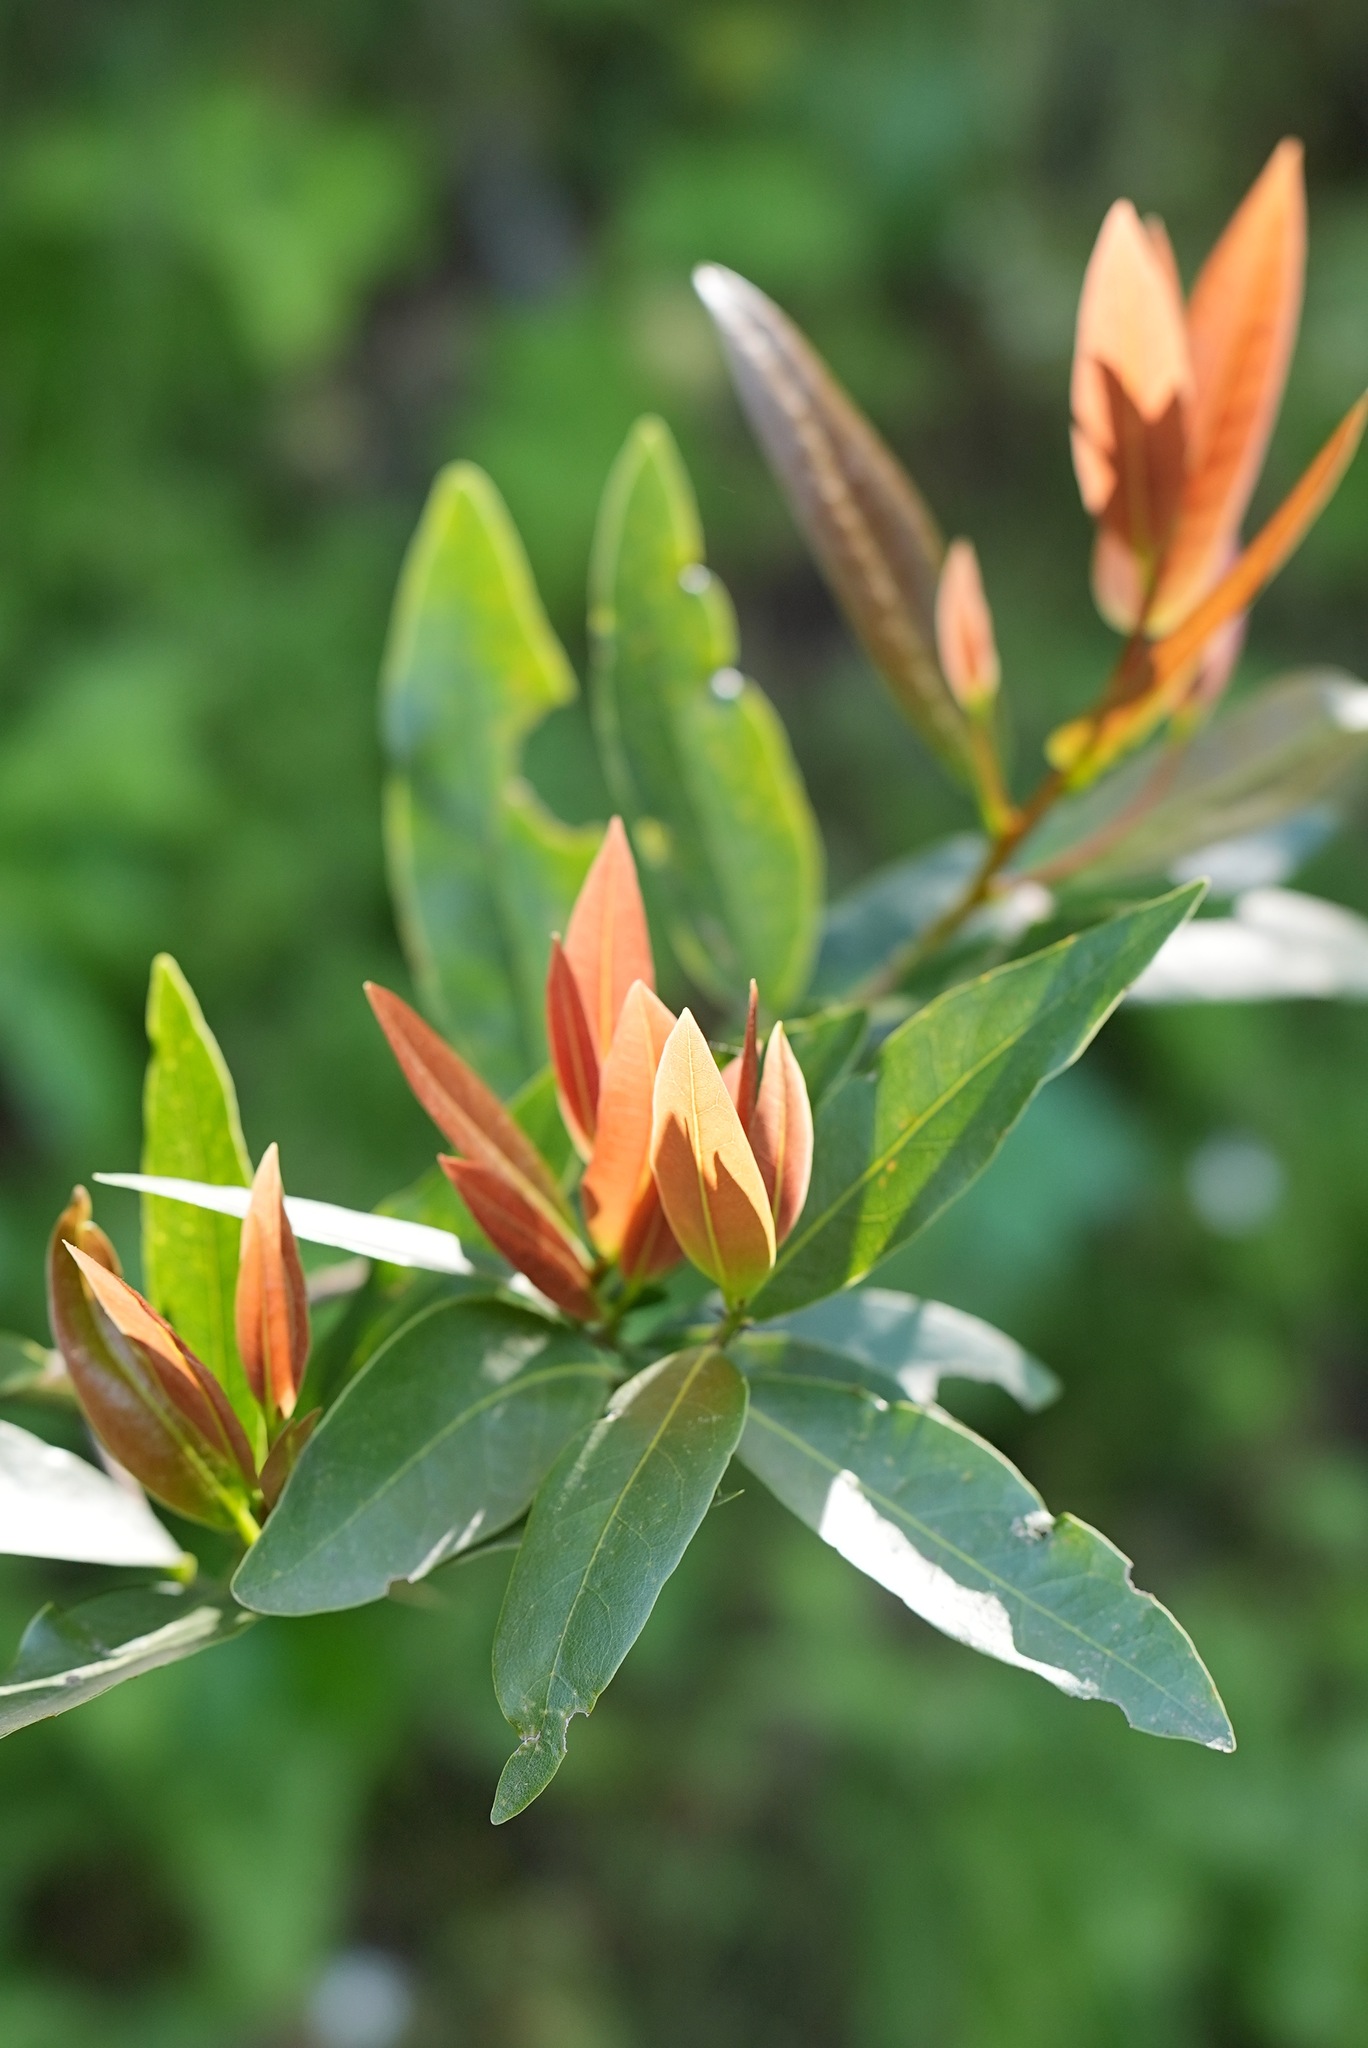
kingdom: Plantae
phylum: Tracheophyta
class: Magnoliopsida
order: Laurales
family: Lauraceae
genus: Umbellularia
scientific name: Umbellularia californica
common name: California bay
